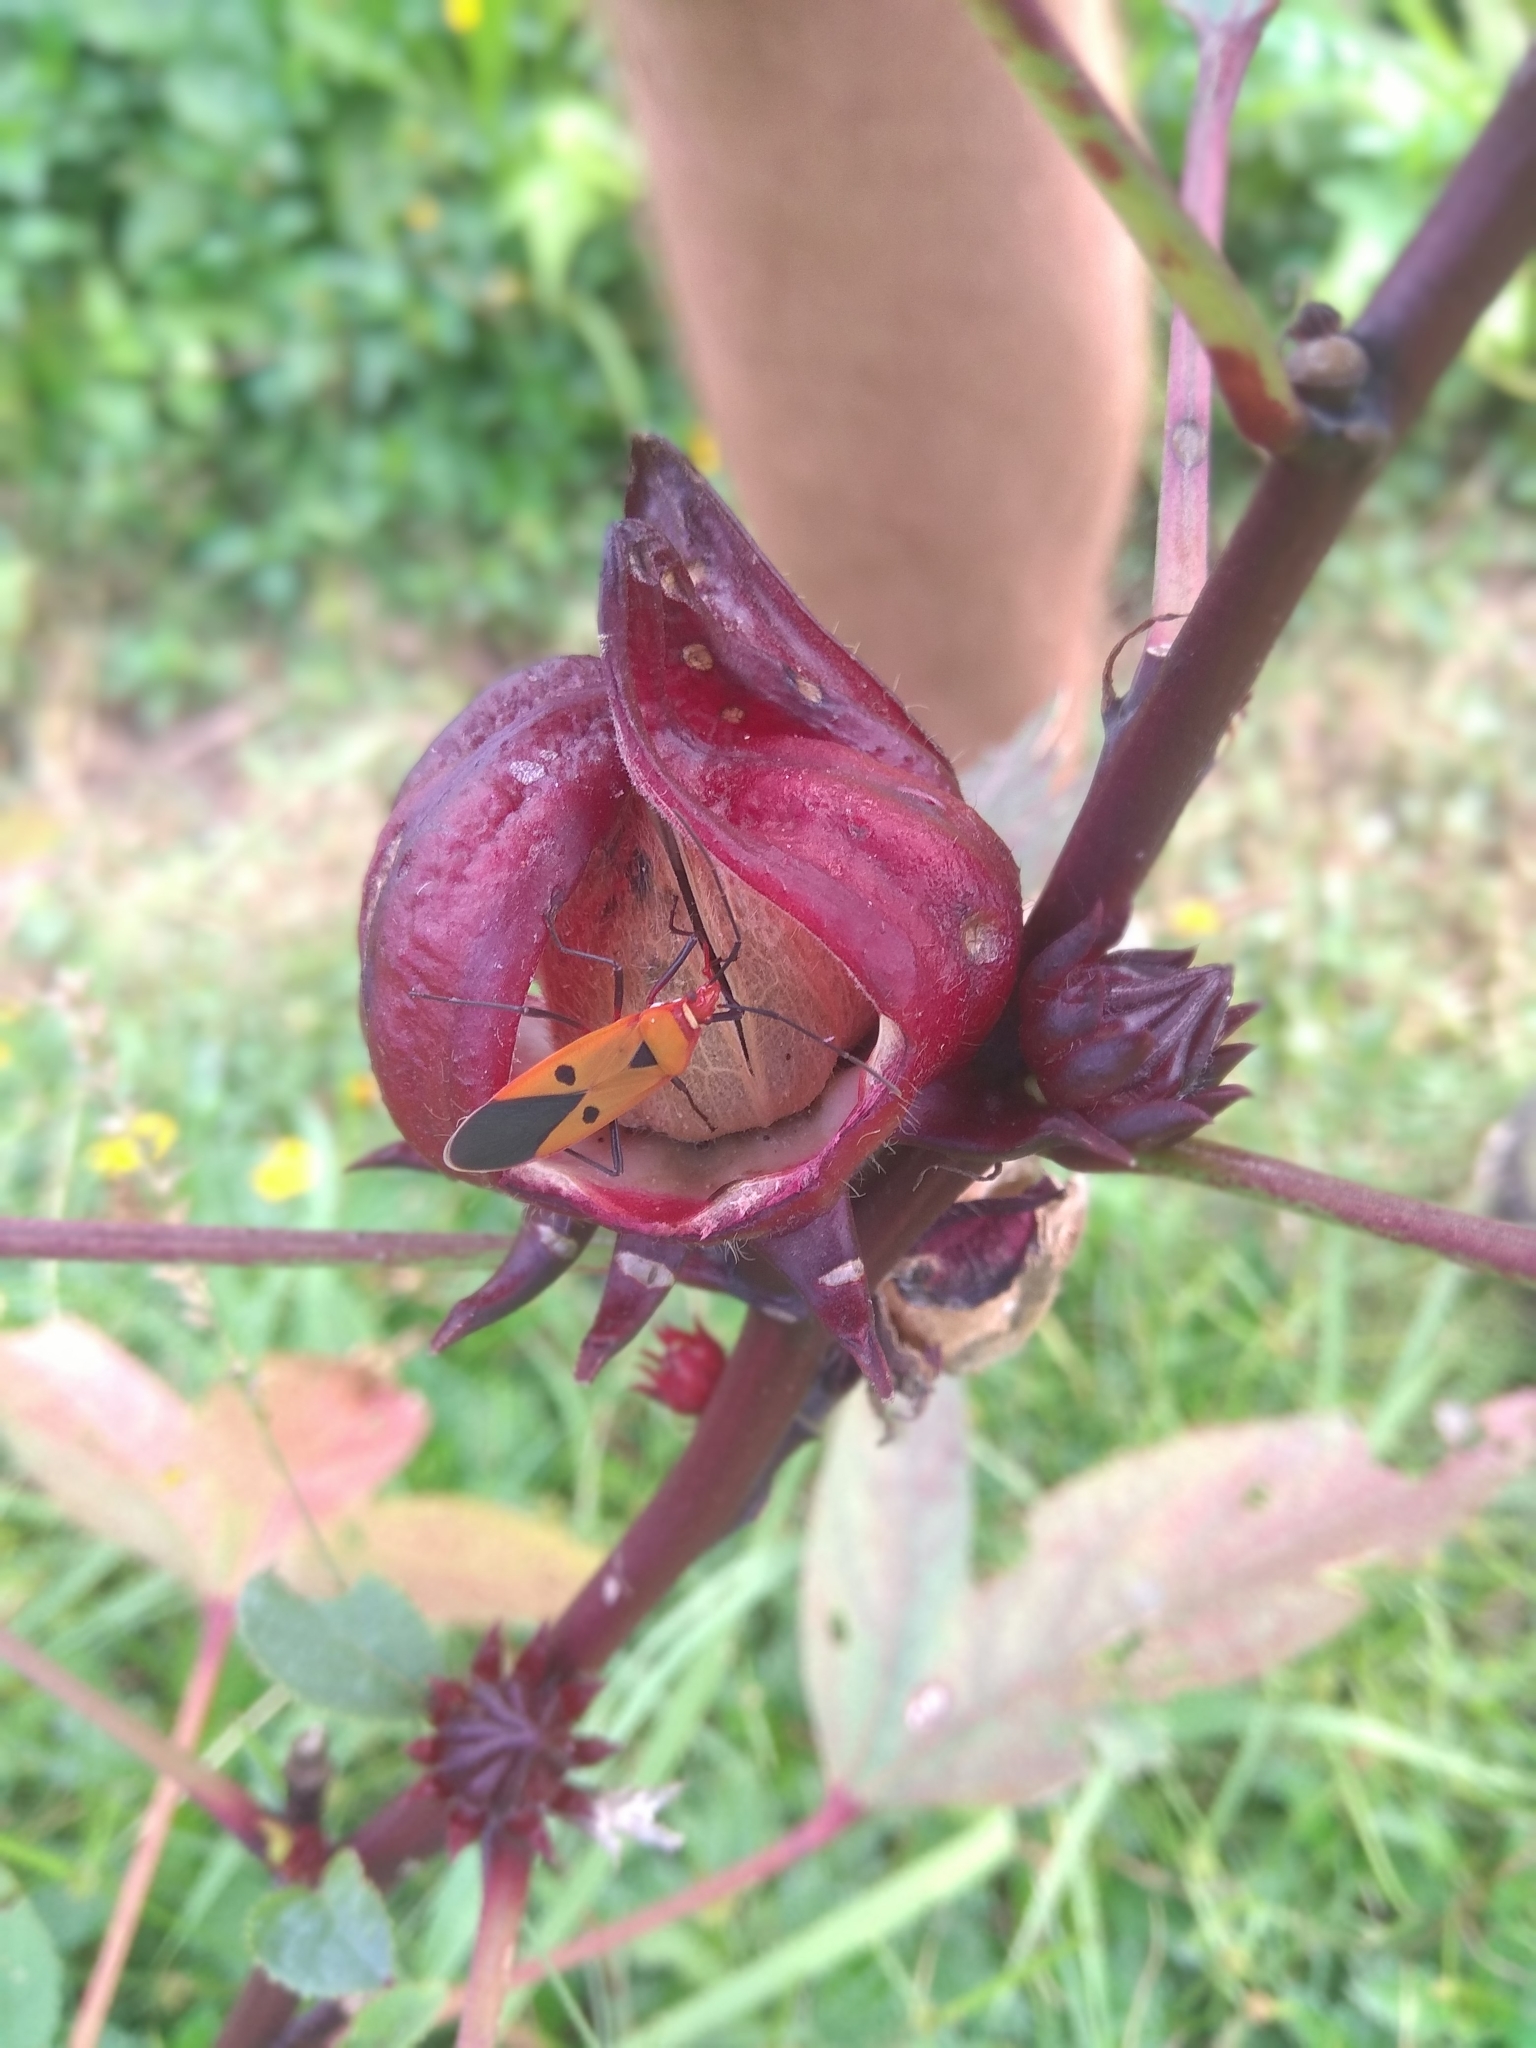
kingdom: Animalia
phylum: Arthropoda
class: Insecta
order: Hemiptera
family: Pyrrhocoridae
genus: Dysdercus
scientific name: Dysdercus cingulatus
